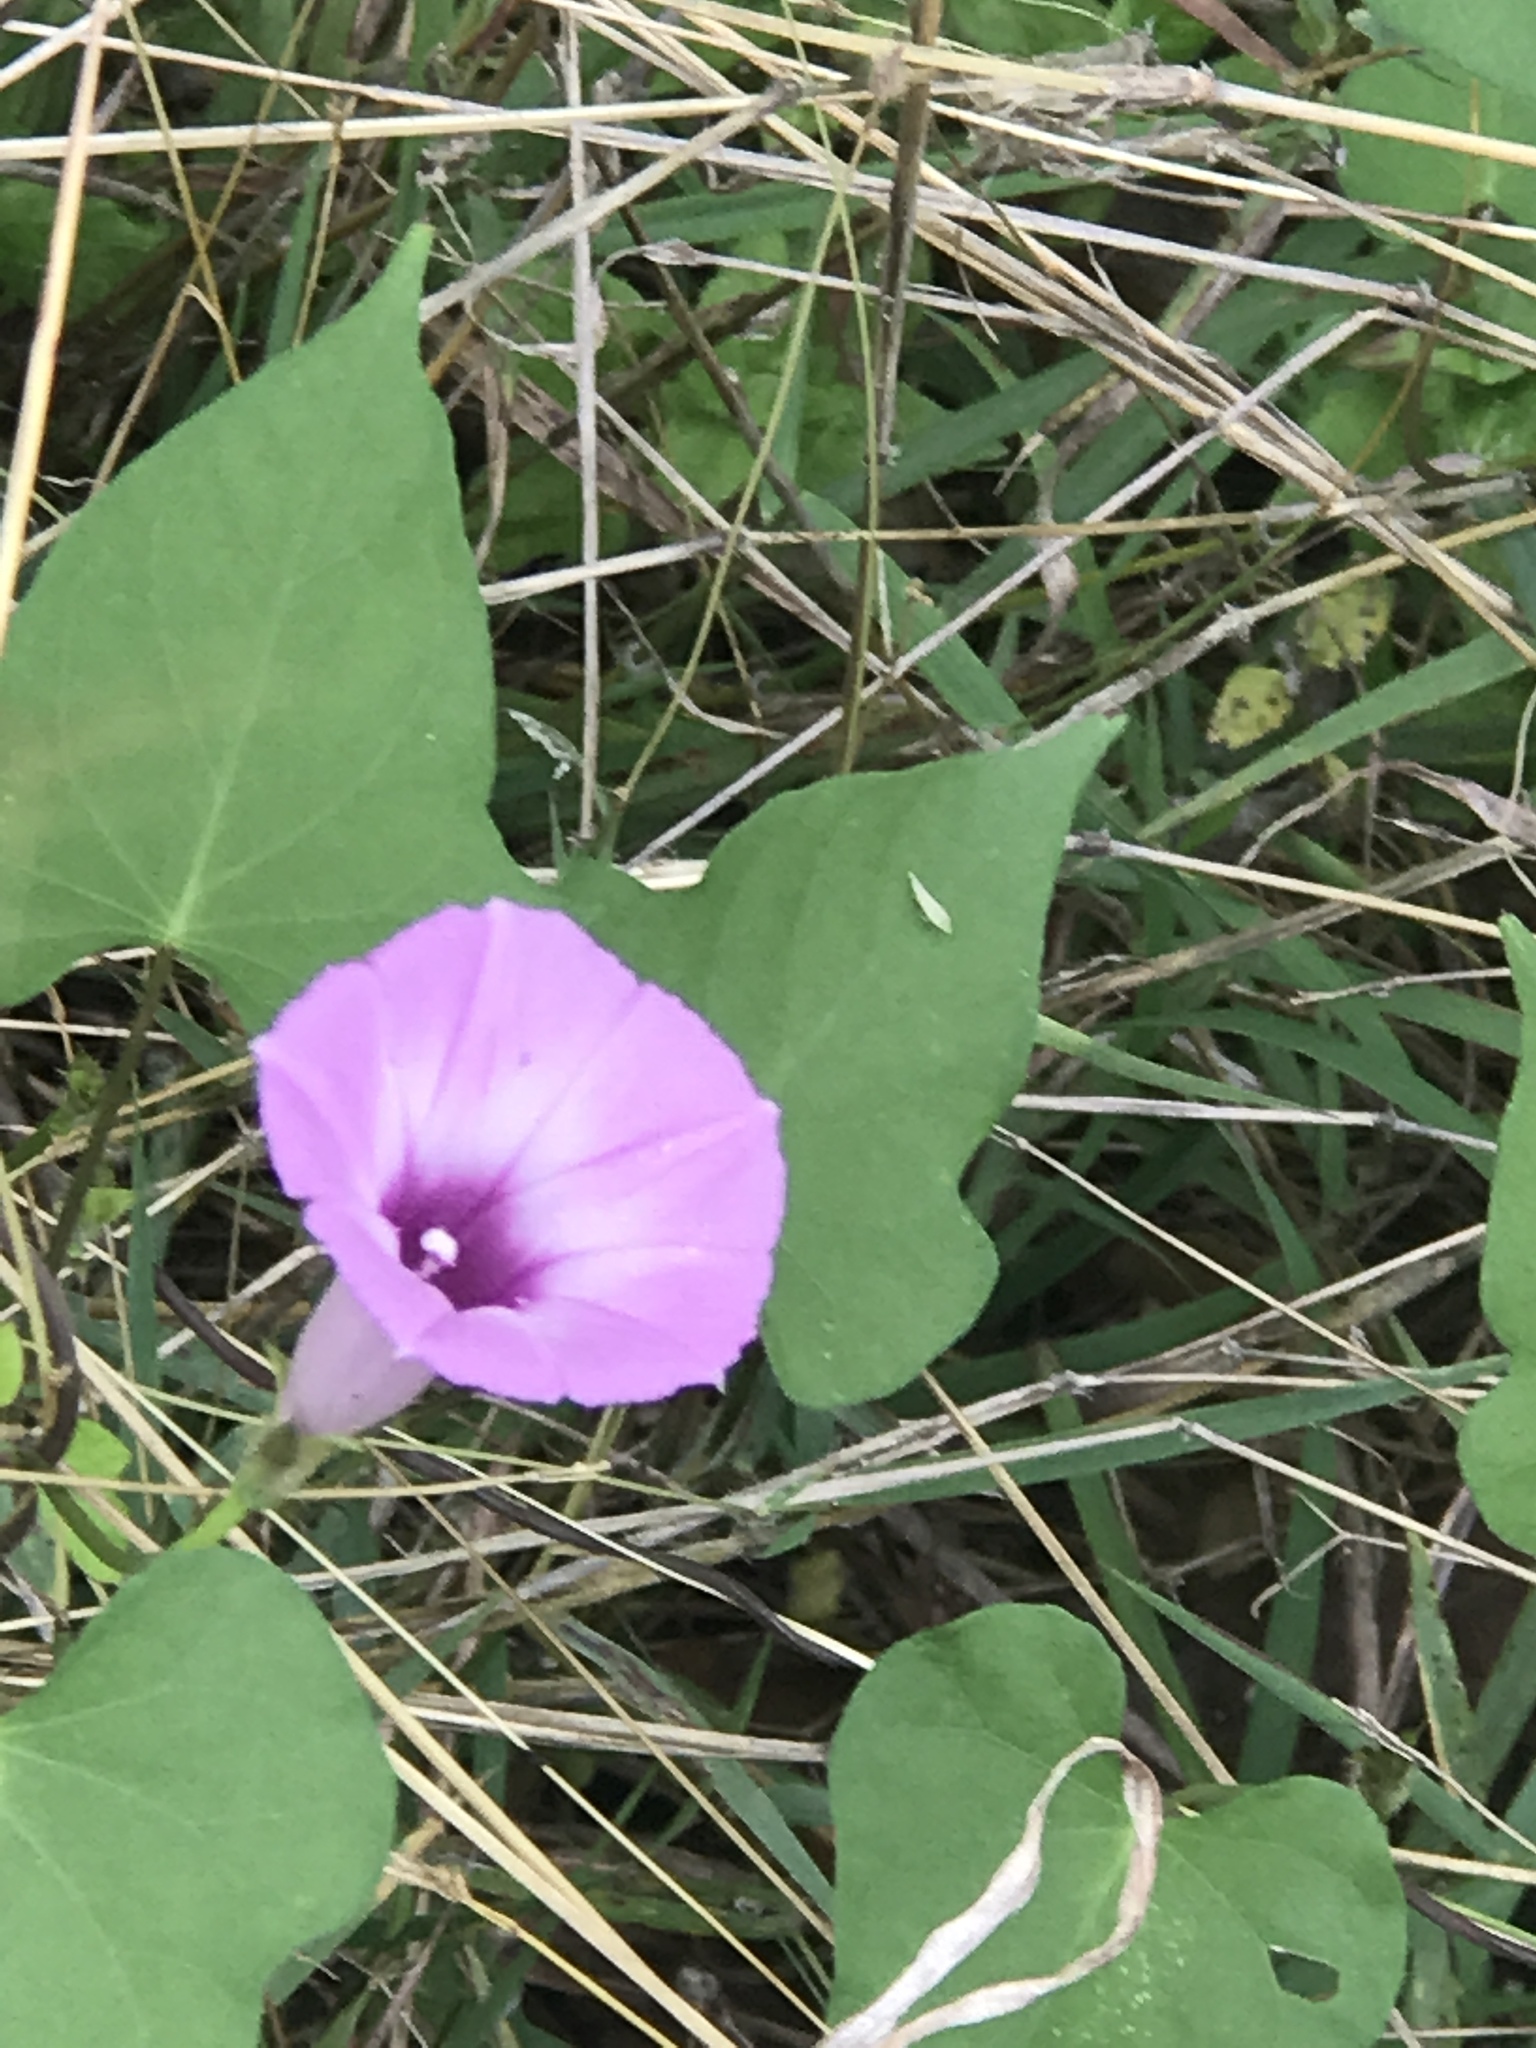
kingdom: Plantae
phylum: Tracheophyta
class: Magnoliopsida
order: Solanales
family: Convolvulaceae
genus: Ipomoea
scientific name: Ipomoea cordatotriloba
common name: Cotton morning glory
